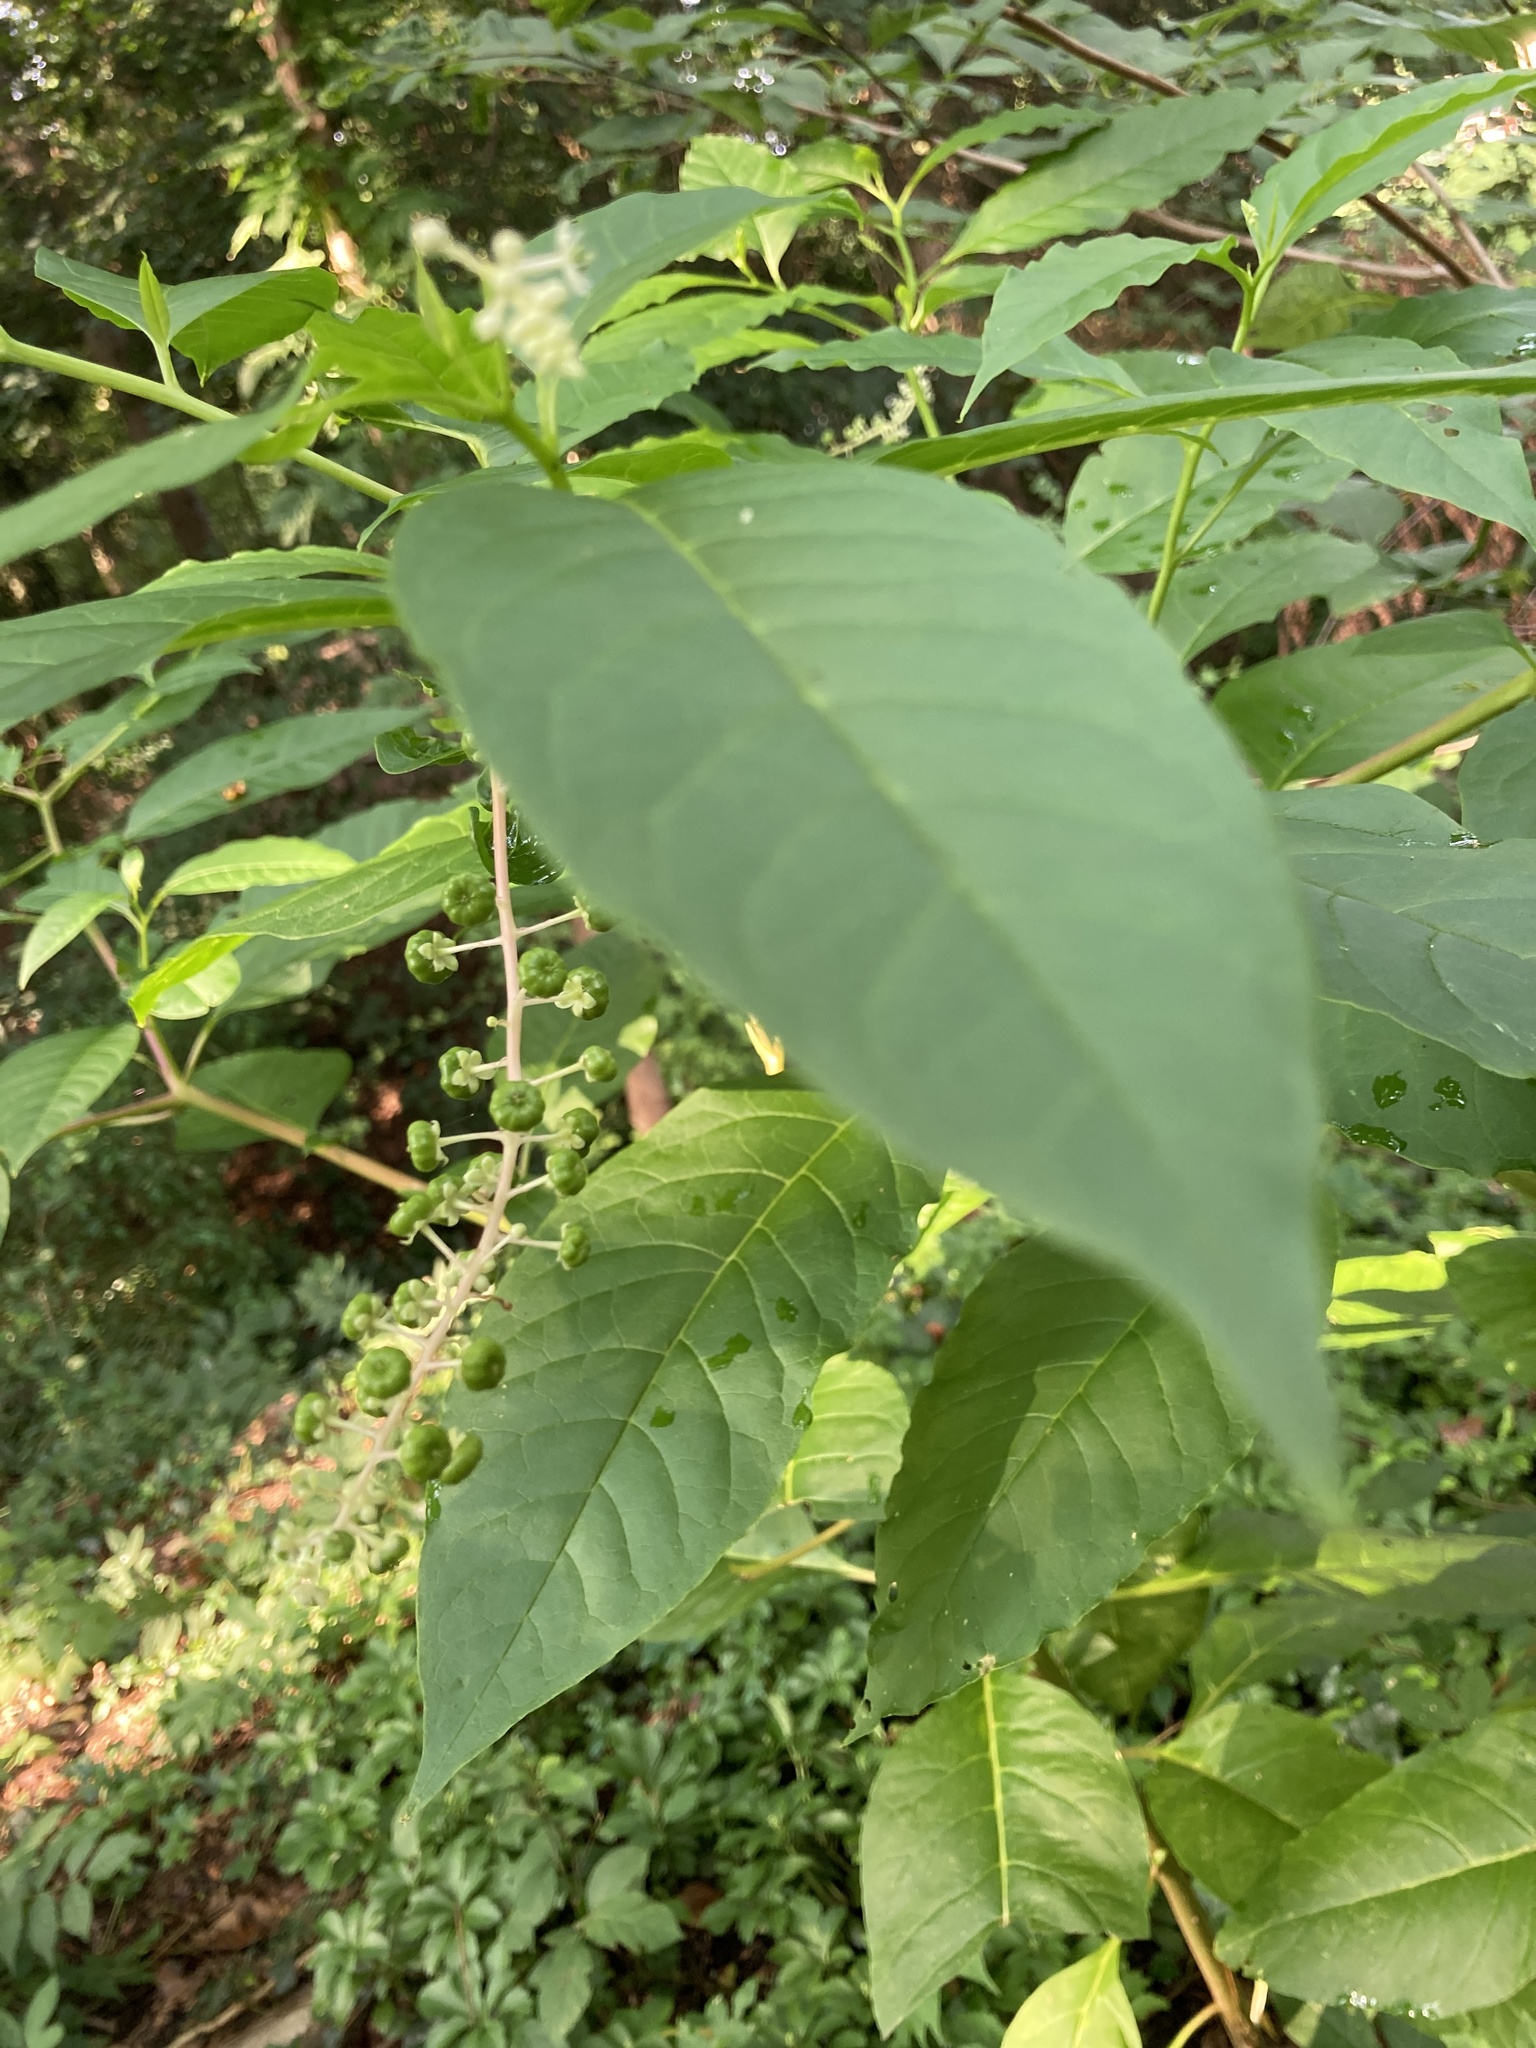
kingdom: Plantae
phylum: Tracheophyta
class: Magnoliopsida
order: Caryophyllales
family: Phytolaccaceae
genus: Phytolacca
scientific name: Phytolacca americana
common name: American pokeweed
